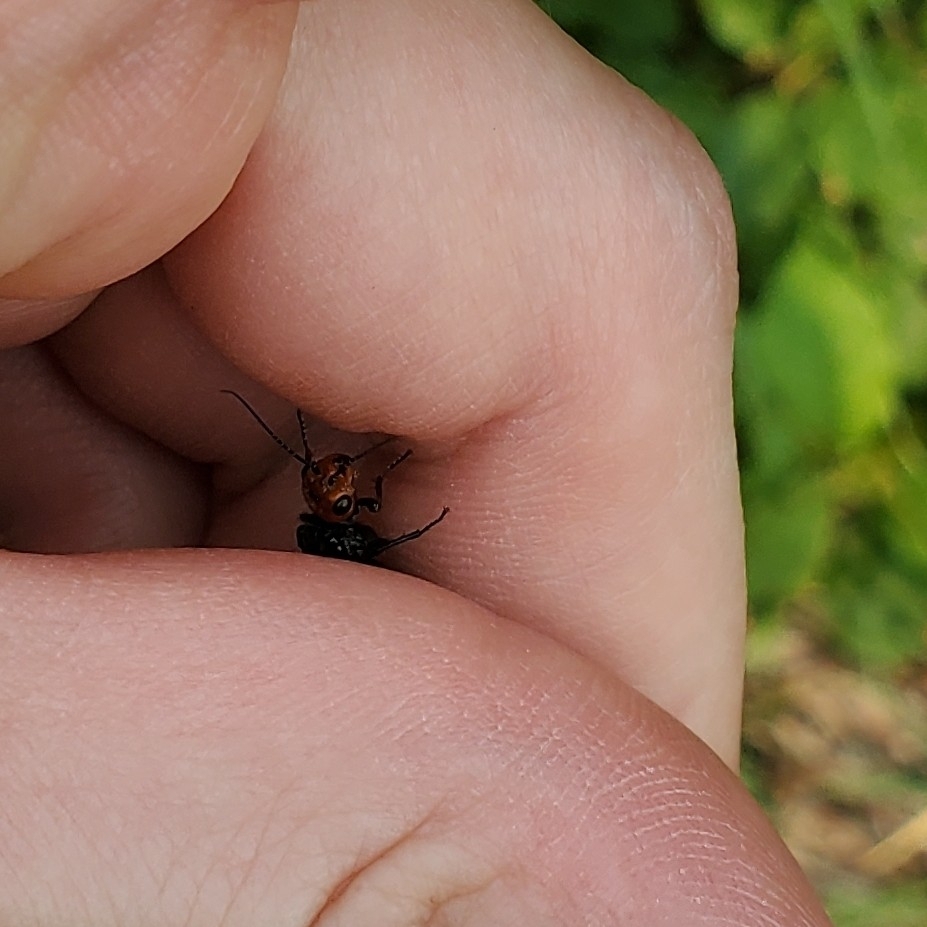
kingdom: Animalia
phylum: Arthropoda
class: Insecta
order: Hymenoptera
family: Pamphiliidae
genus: Acantholyda
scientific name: Acantholyda erythrocephala
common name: Pine false webworm
